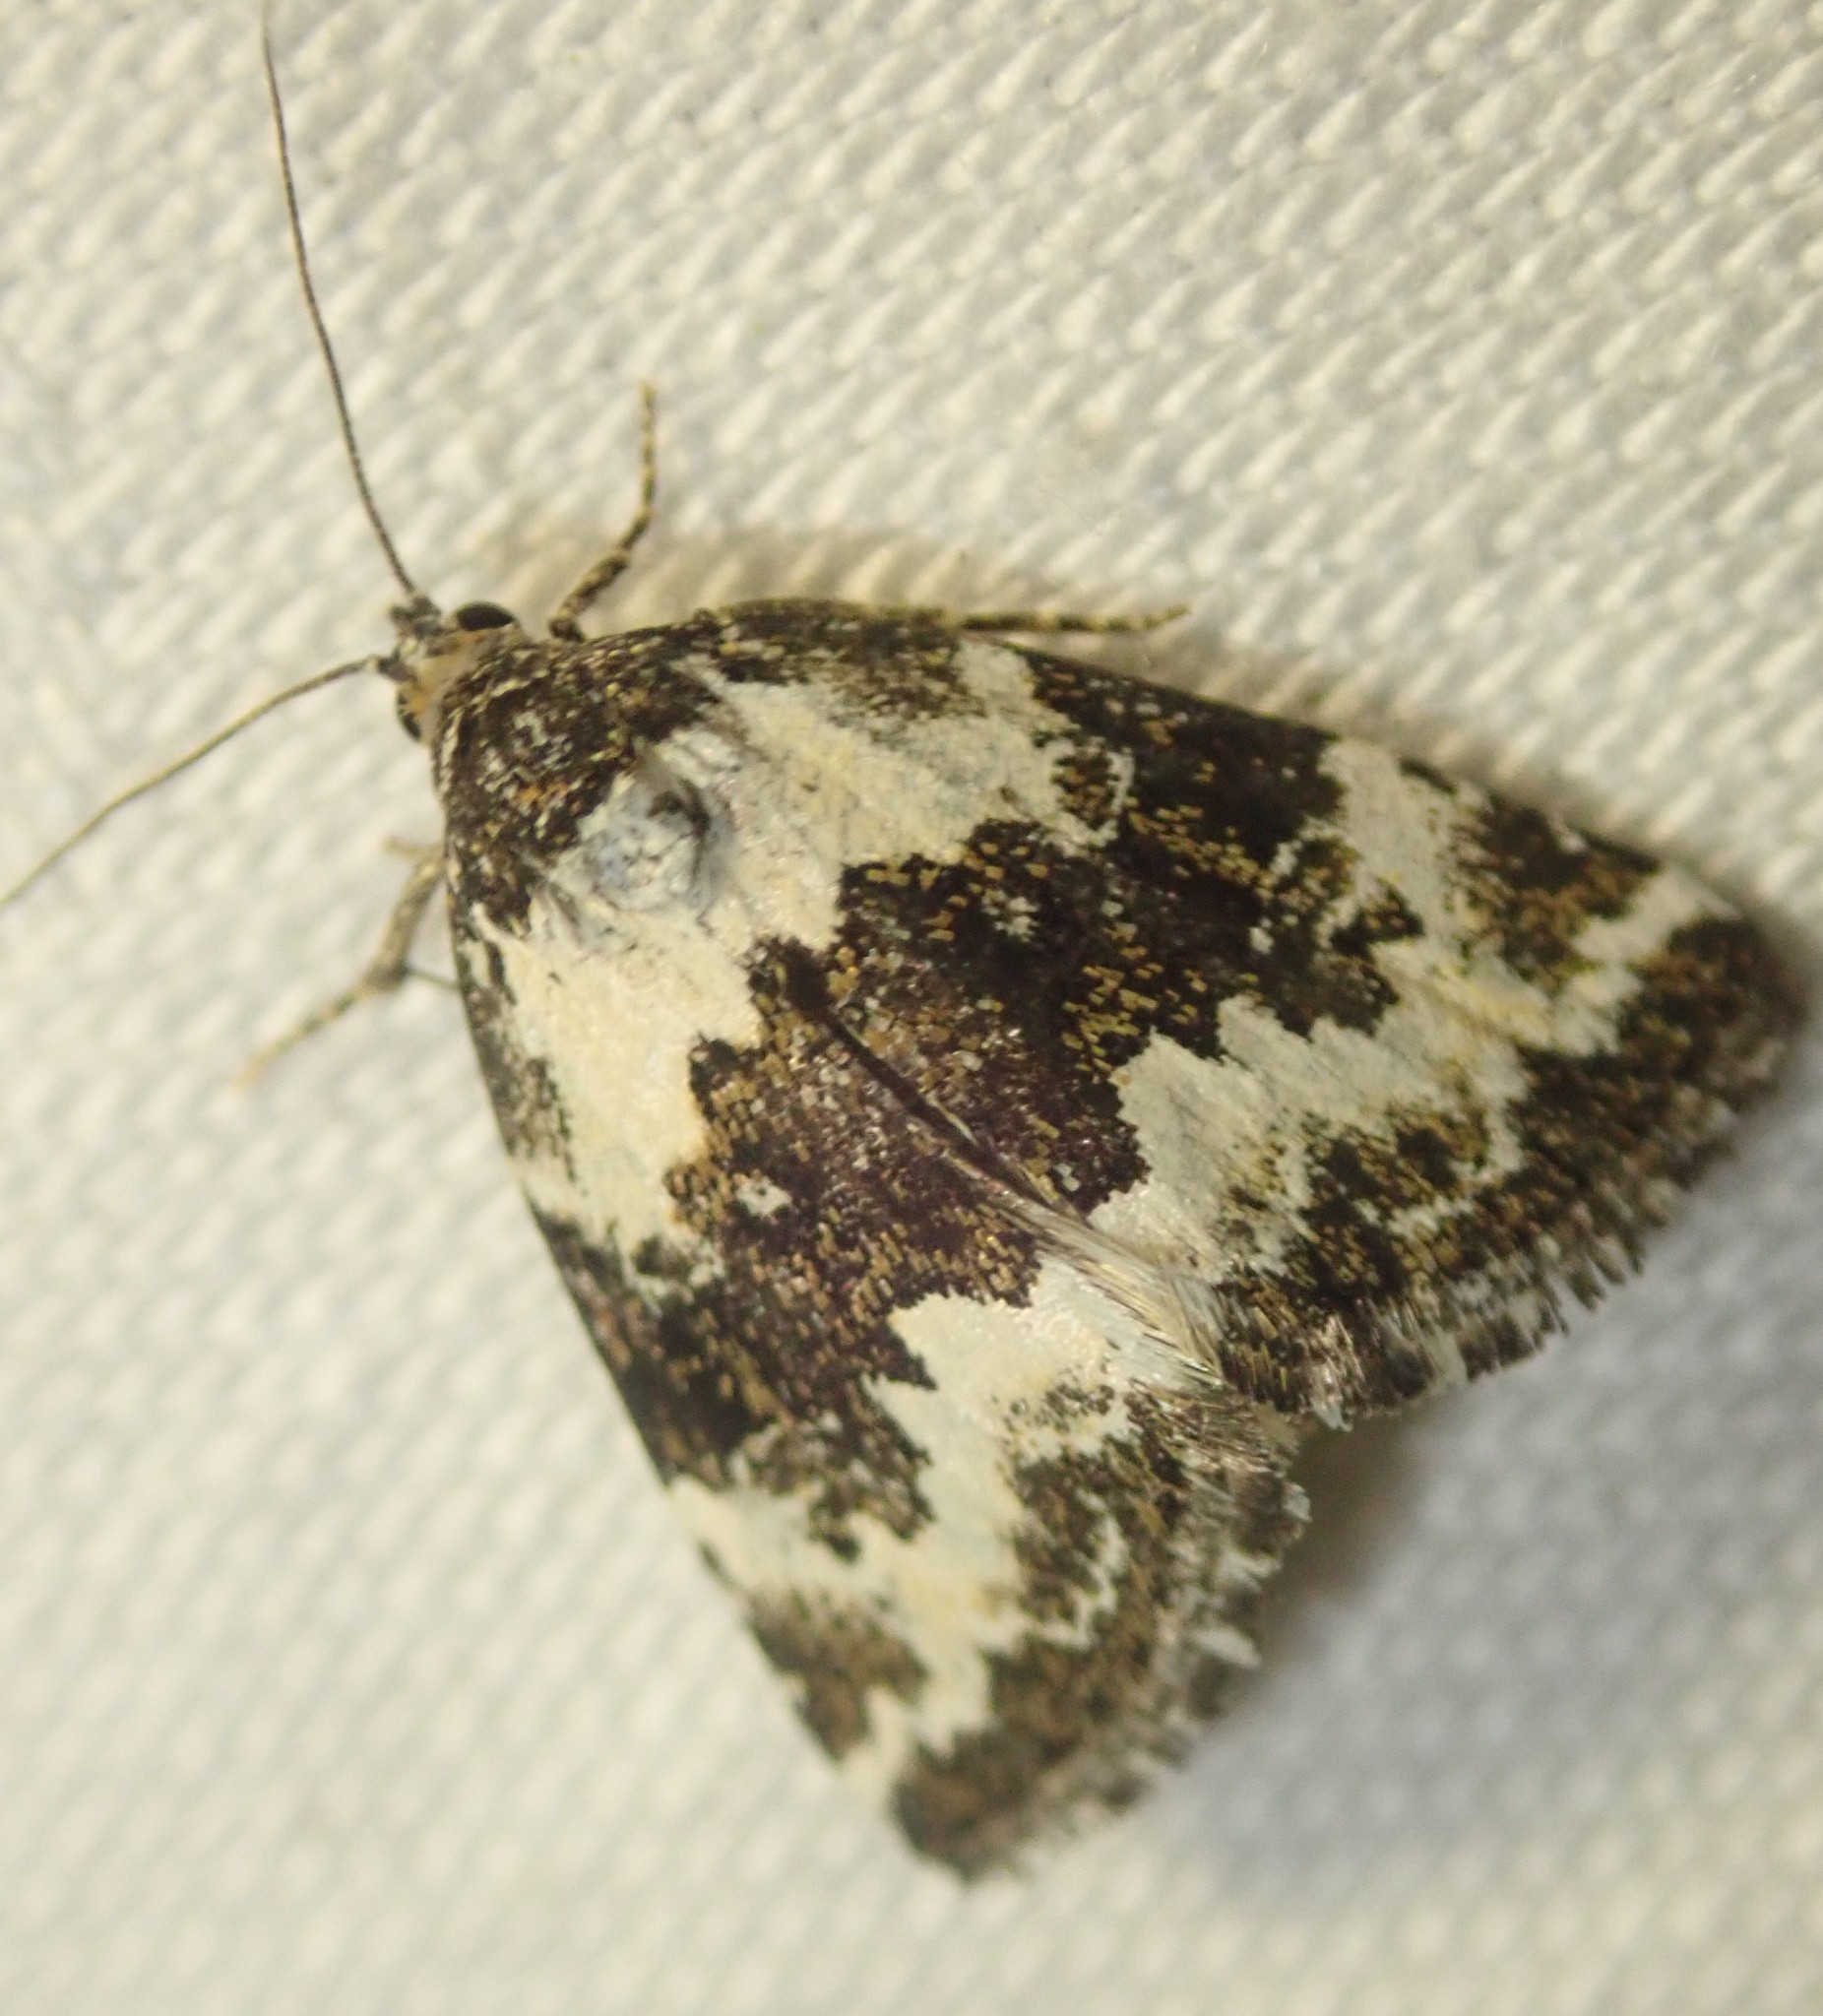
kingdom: Animalia
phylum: Arthropoda
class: Insecta
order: Lepidoptera
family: Noctuidae
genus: Deltote
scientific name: Deltote deceptoria
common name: Pretty marbled
